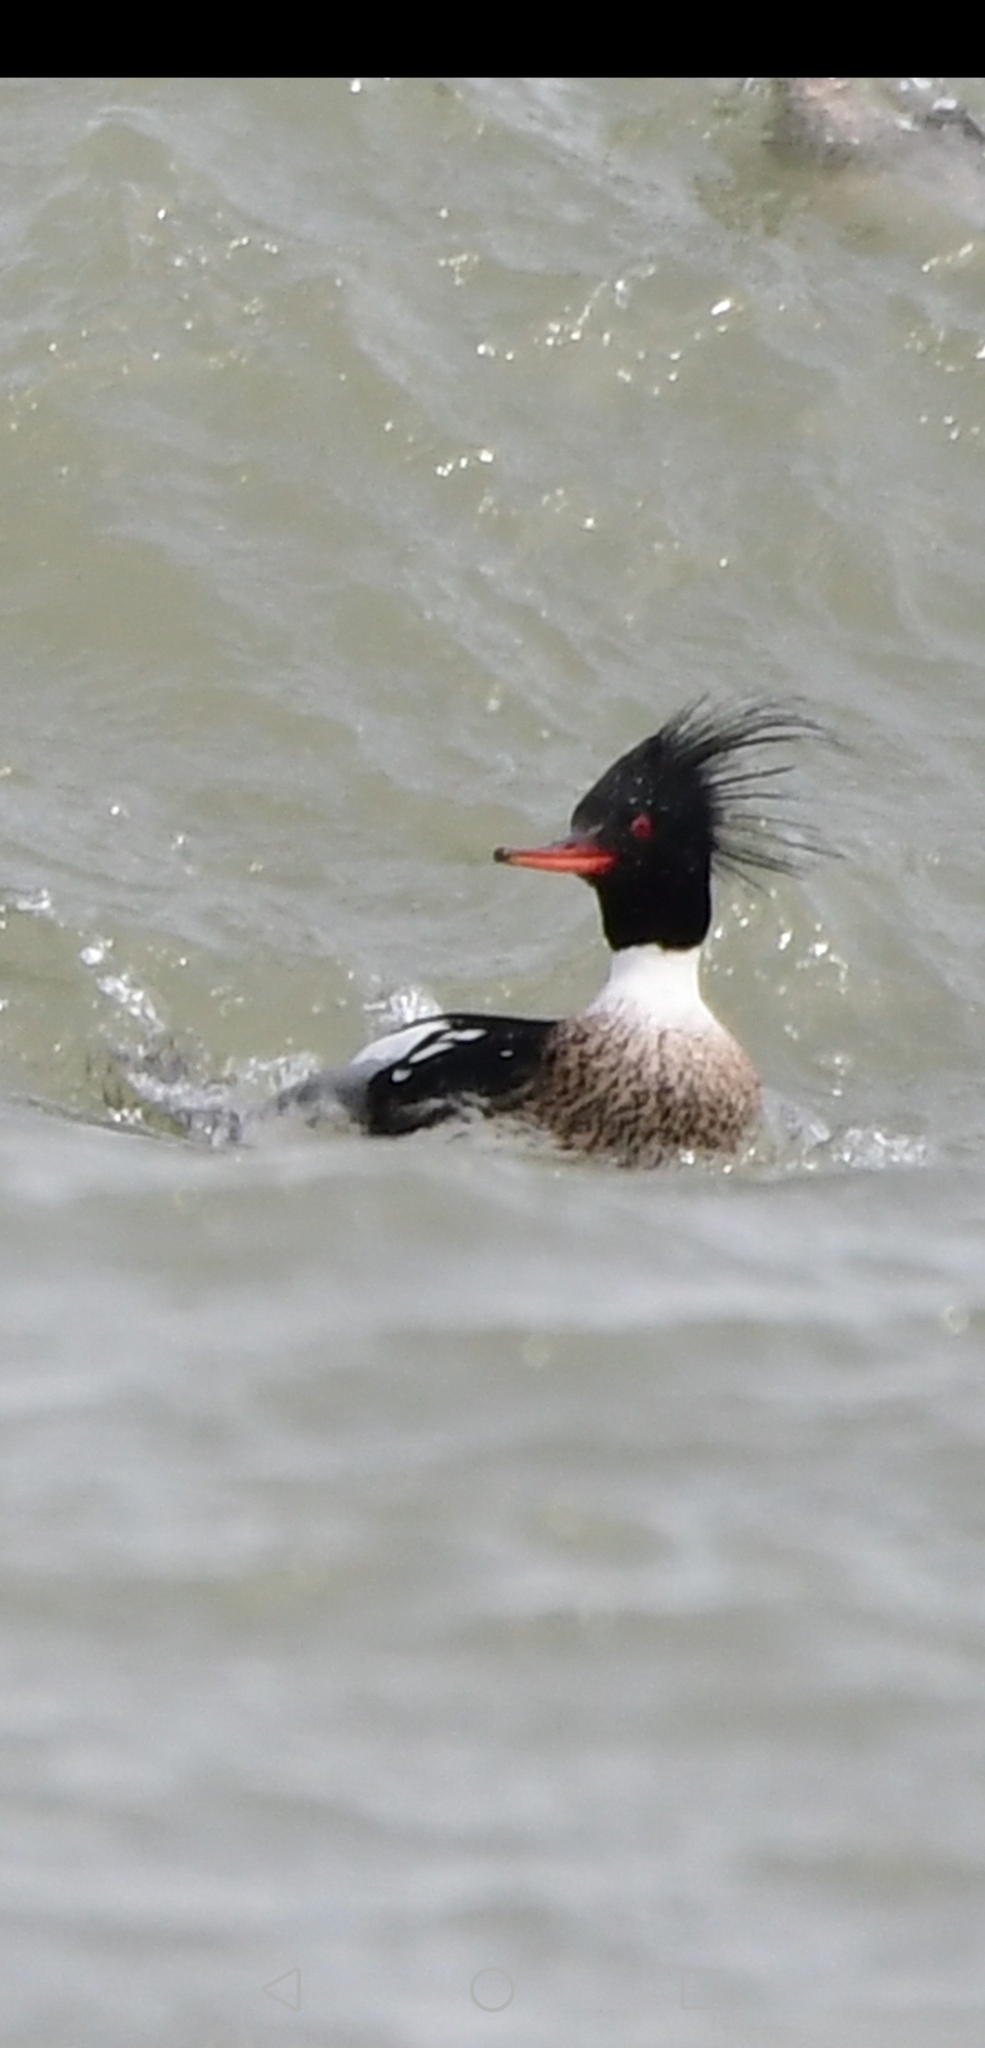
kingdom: Animalia
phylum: Chordata
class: Aves
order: Anseriformes
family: Anatidae
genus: Mergus
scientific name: Mergus serrator
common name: Red-breasted merganser
